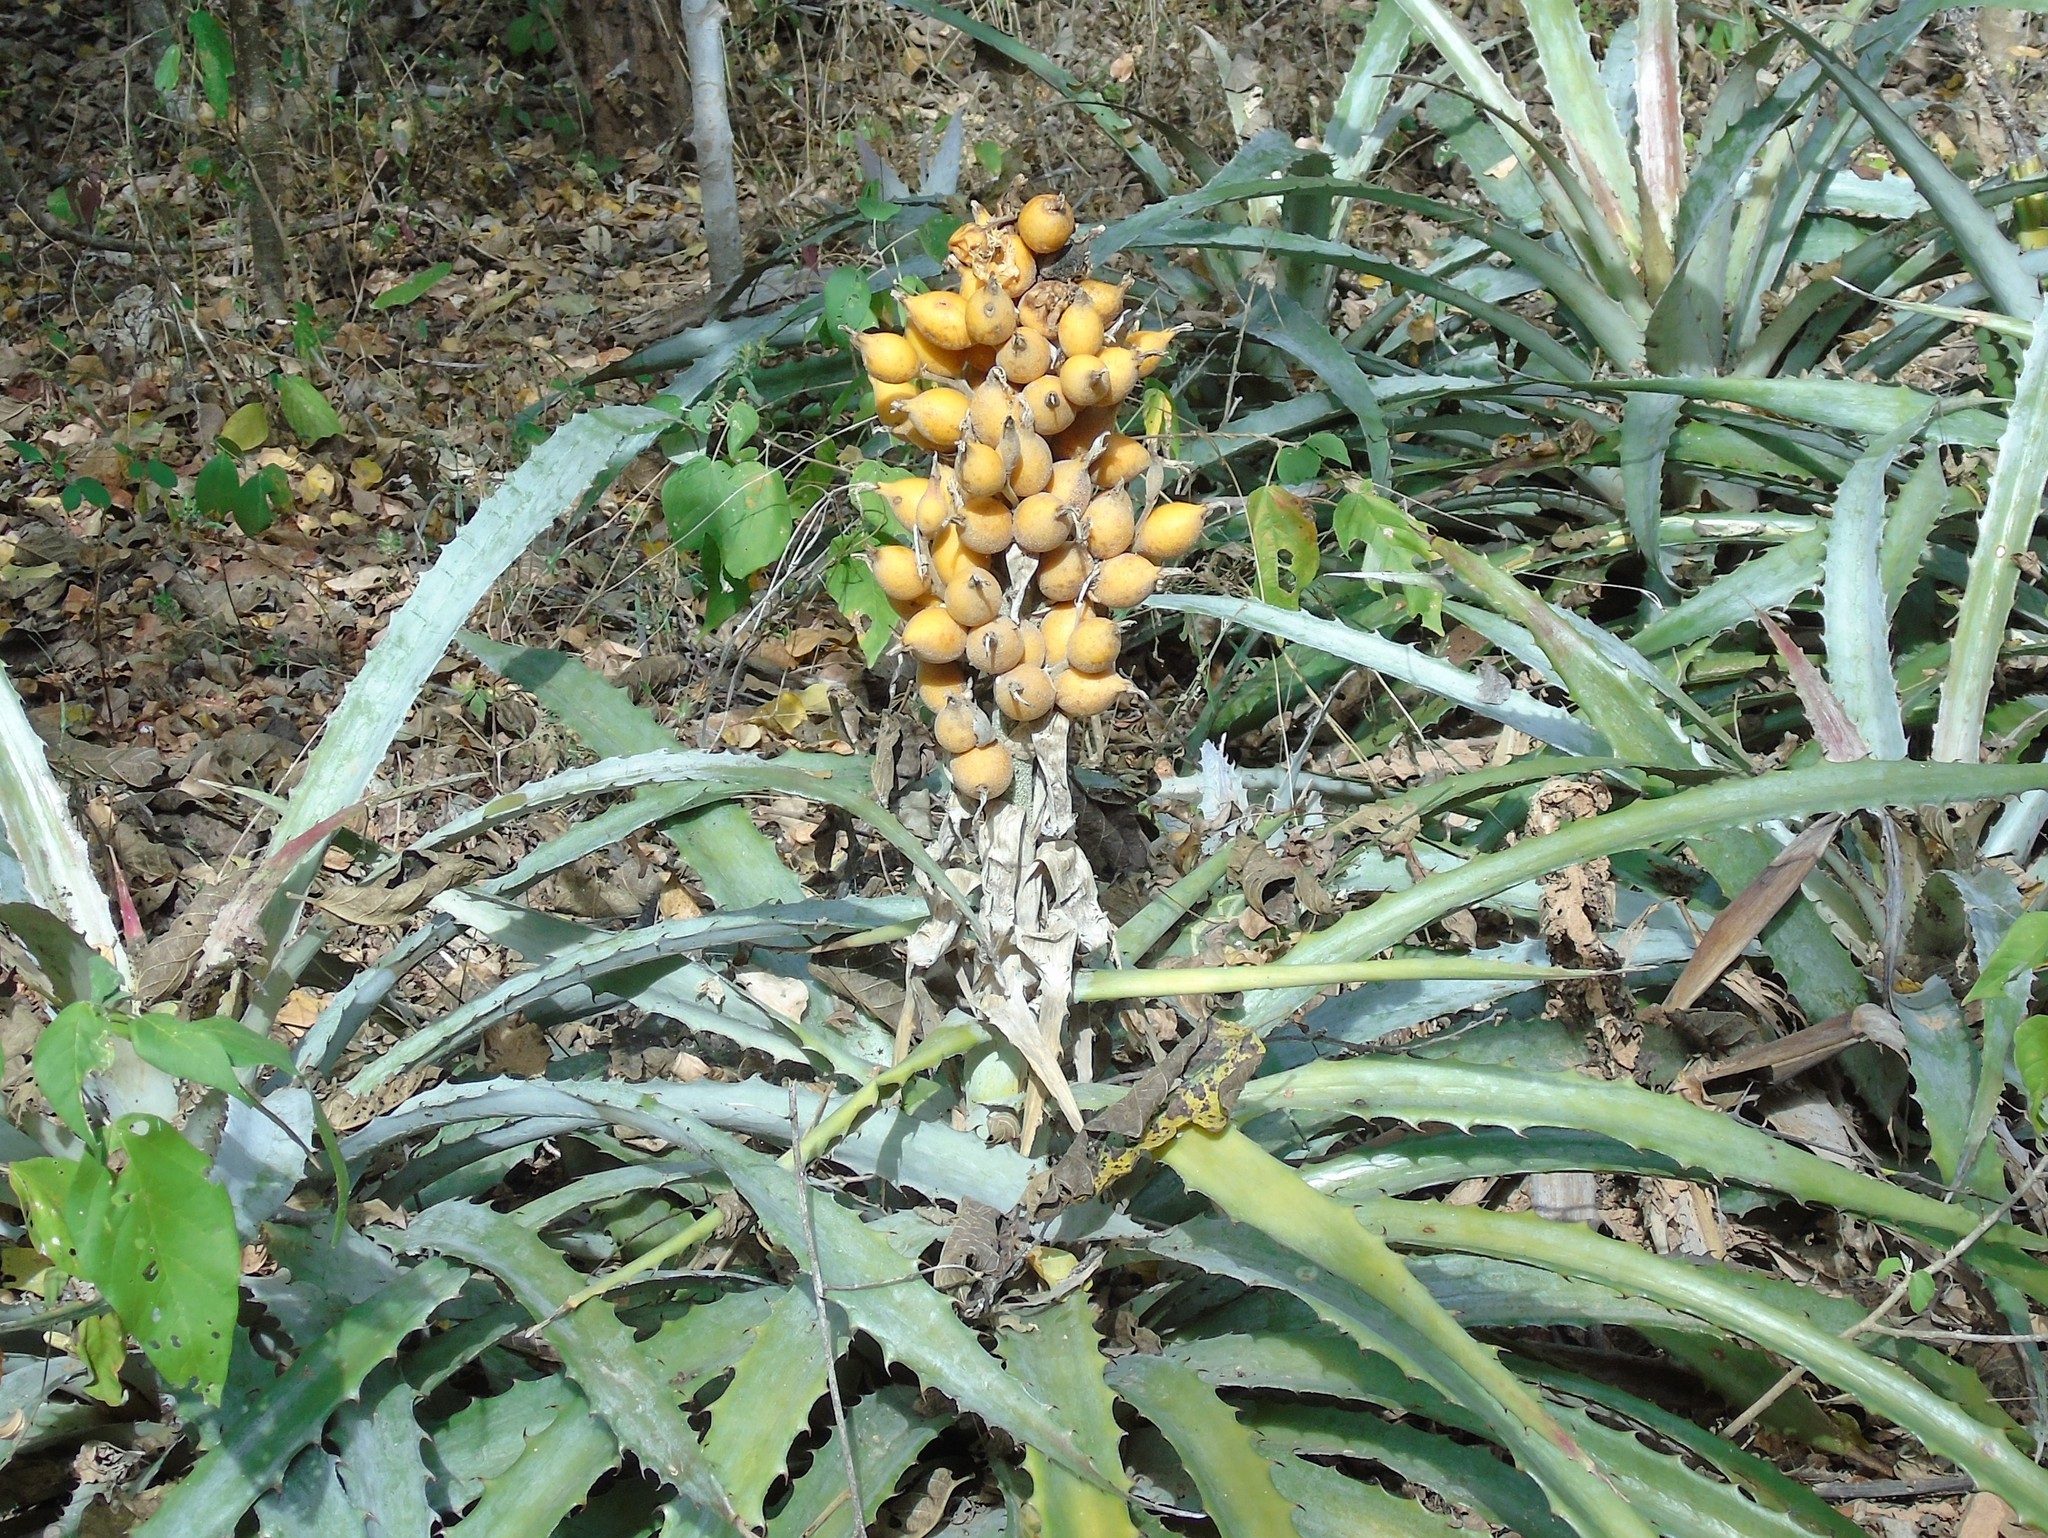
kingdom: Plantae
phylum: Tracheophyta
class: Liliopsida
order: Poales
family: Bromeliaceae
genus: Bromelia
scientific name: Bromelia pinguin
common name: Pinguin
